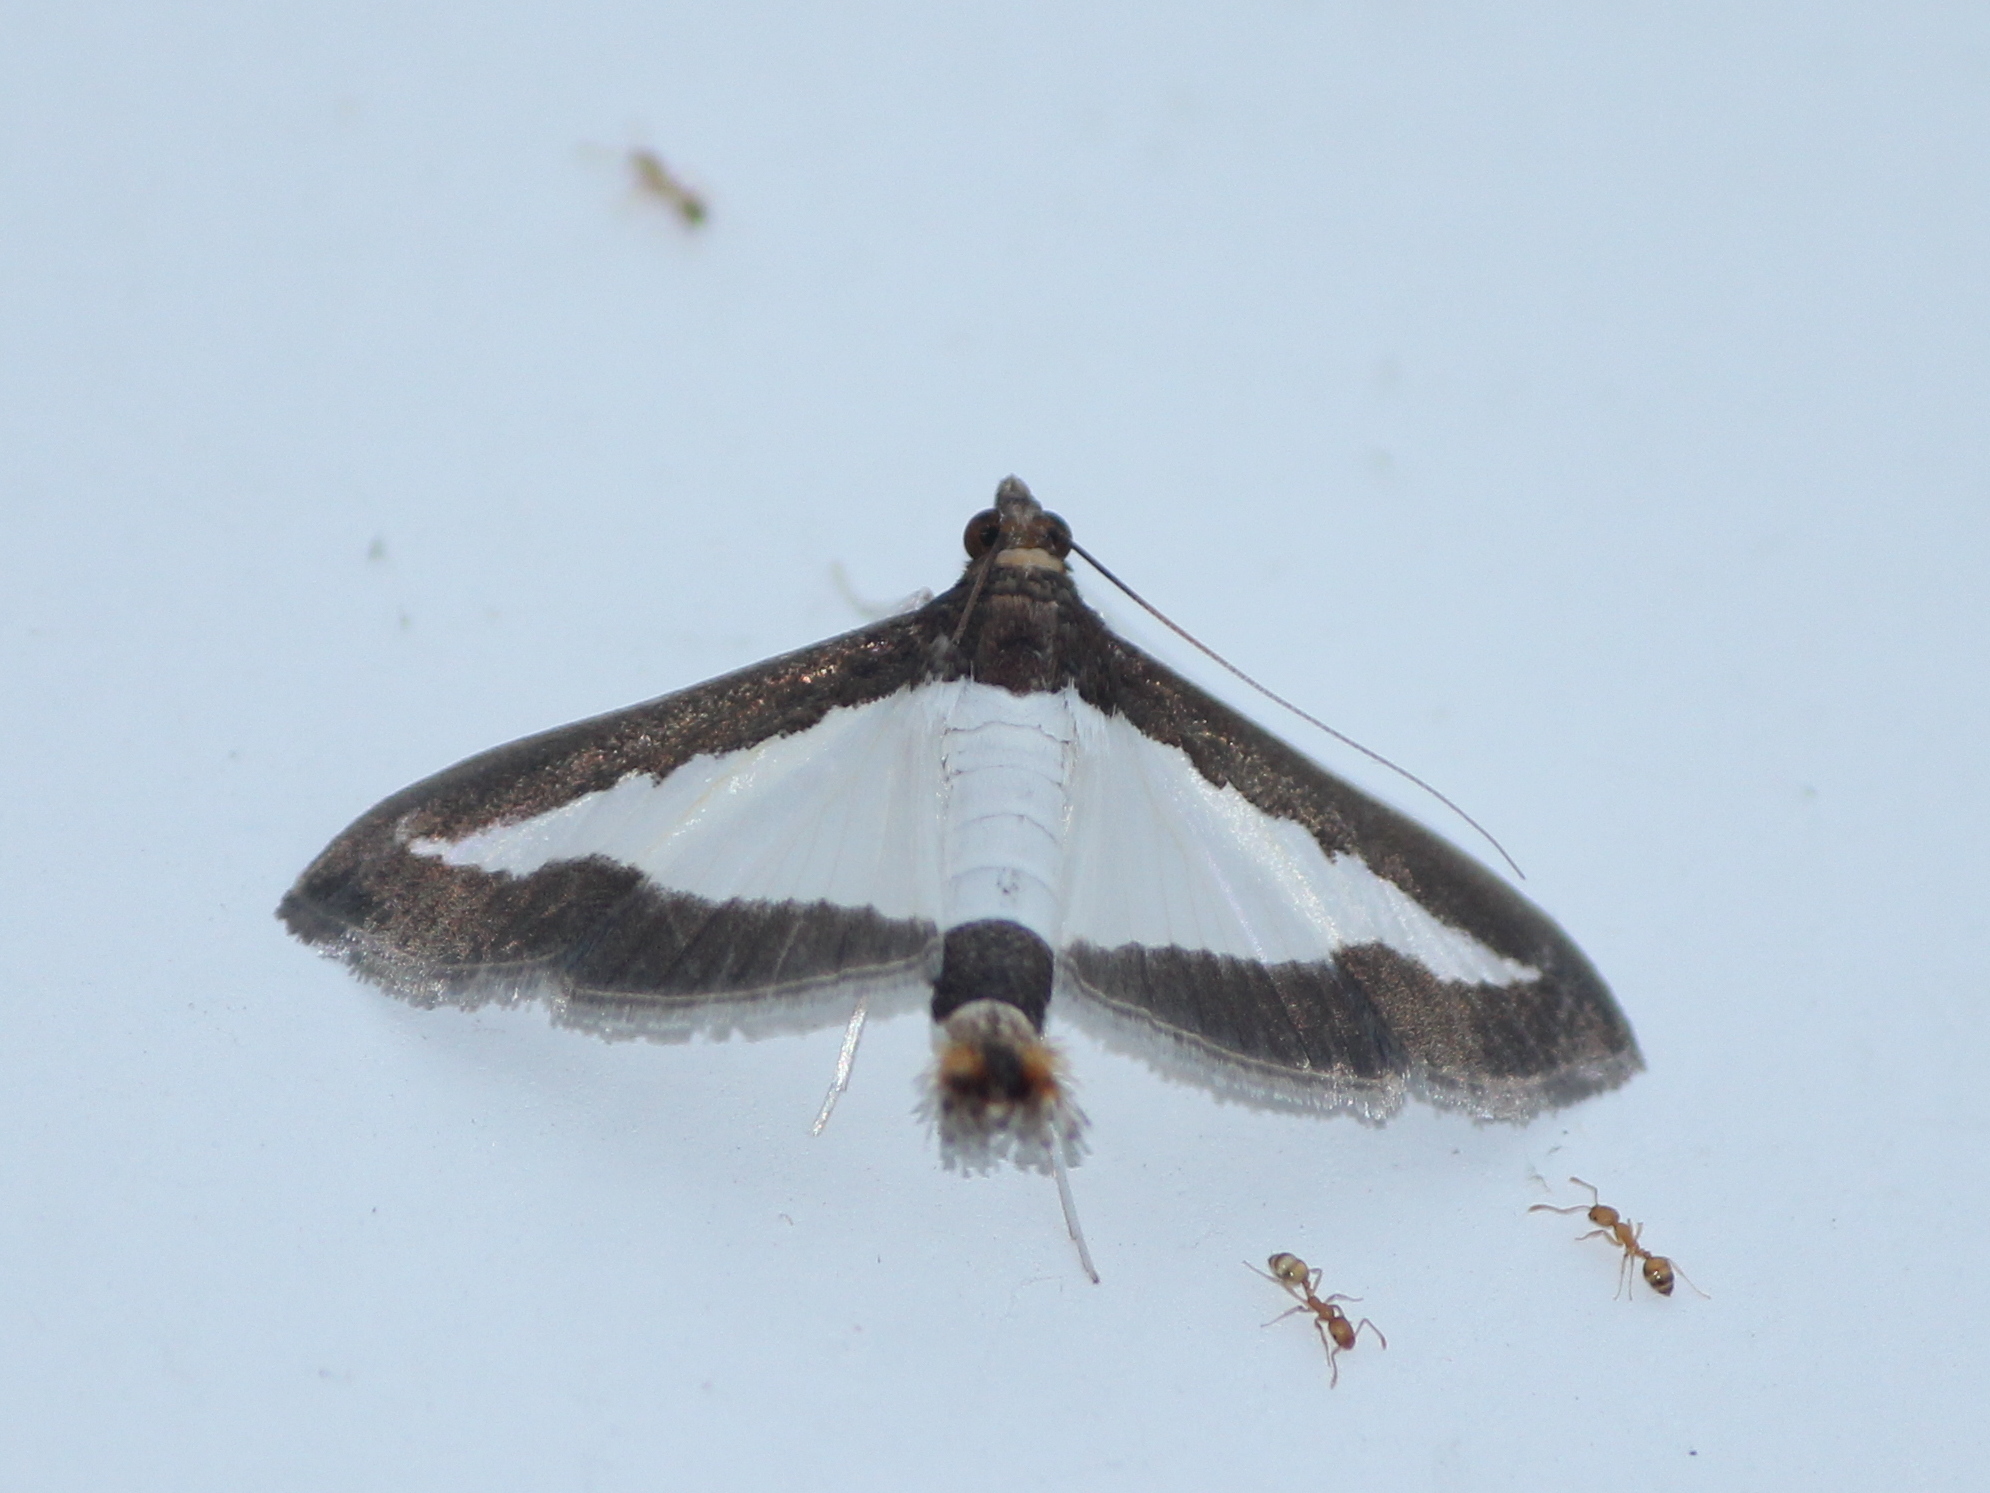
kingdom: Animalia
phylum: Arthropoda
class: Insecta
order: Lepidoptera
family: Crambidae
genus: Diaphania
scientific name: Diaphania indica
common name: Cucumber moth
